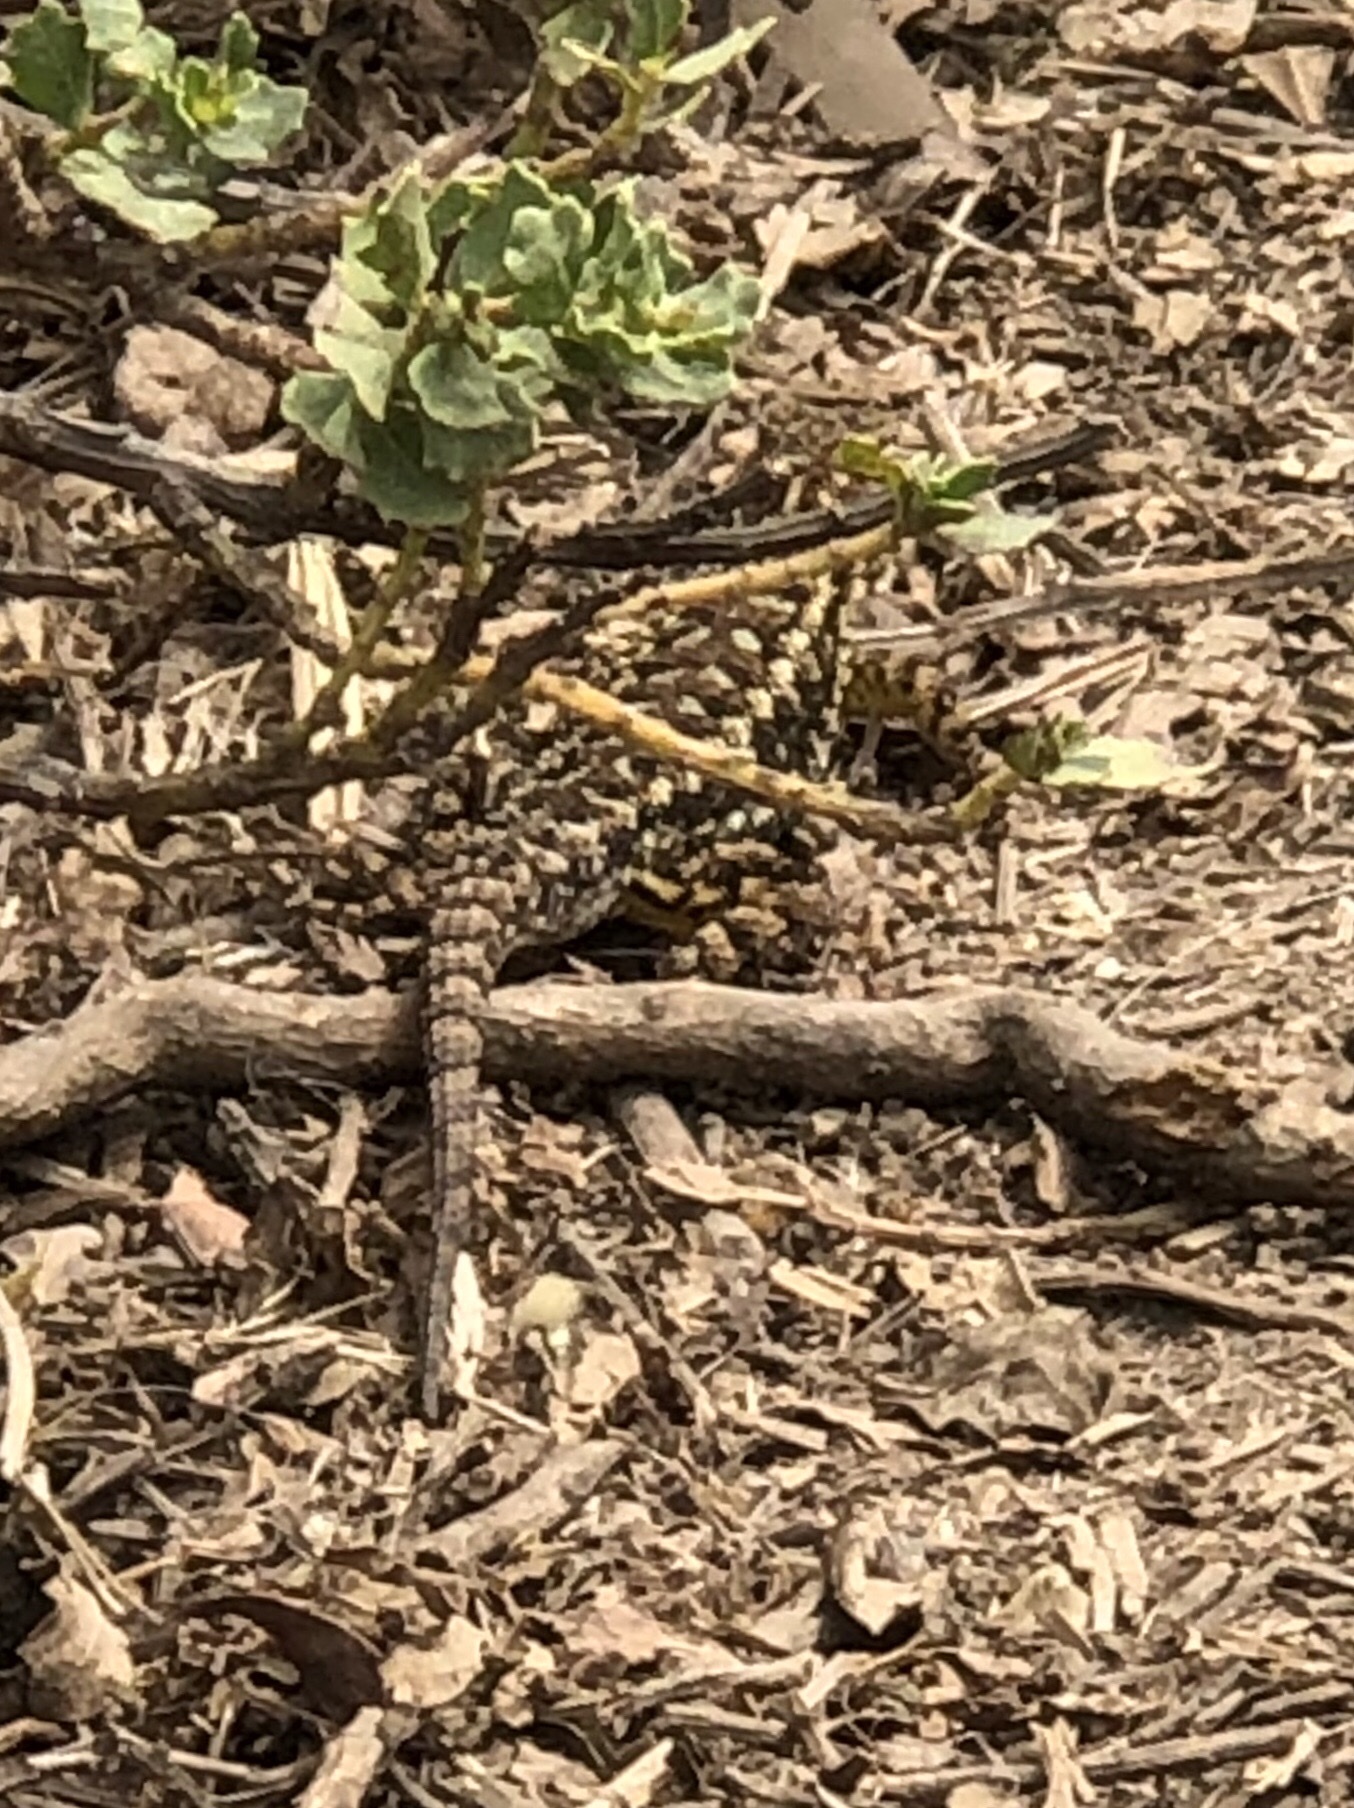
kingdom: Animalia
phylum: Chordata
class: Squamata
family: Phrynosomatidae
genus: Sceloporus
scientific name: Sceloporus occidentalis
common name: Western fence lizard
